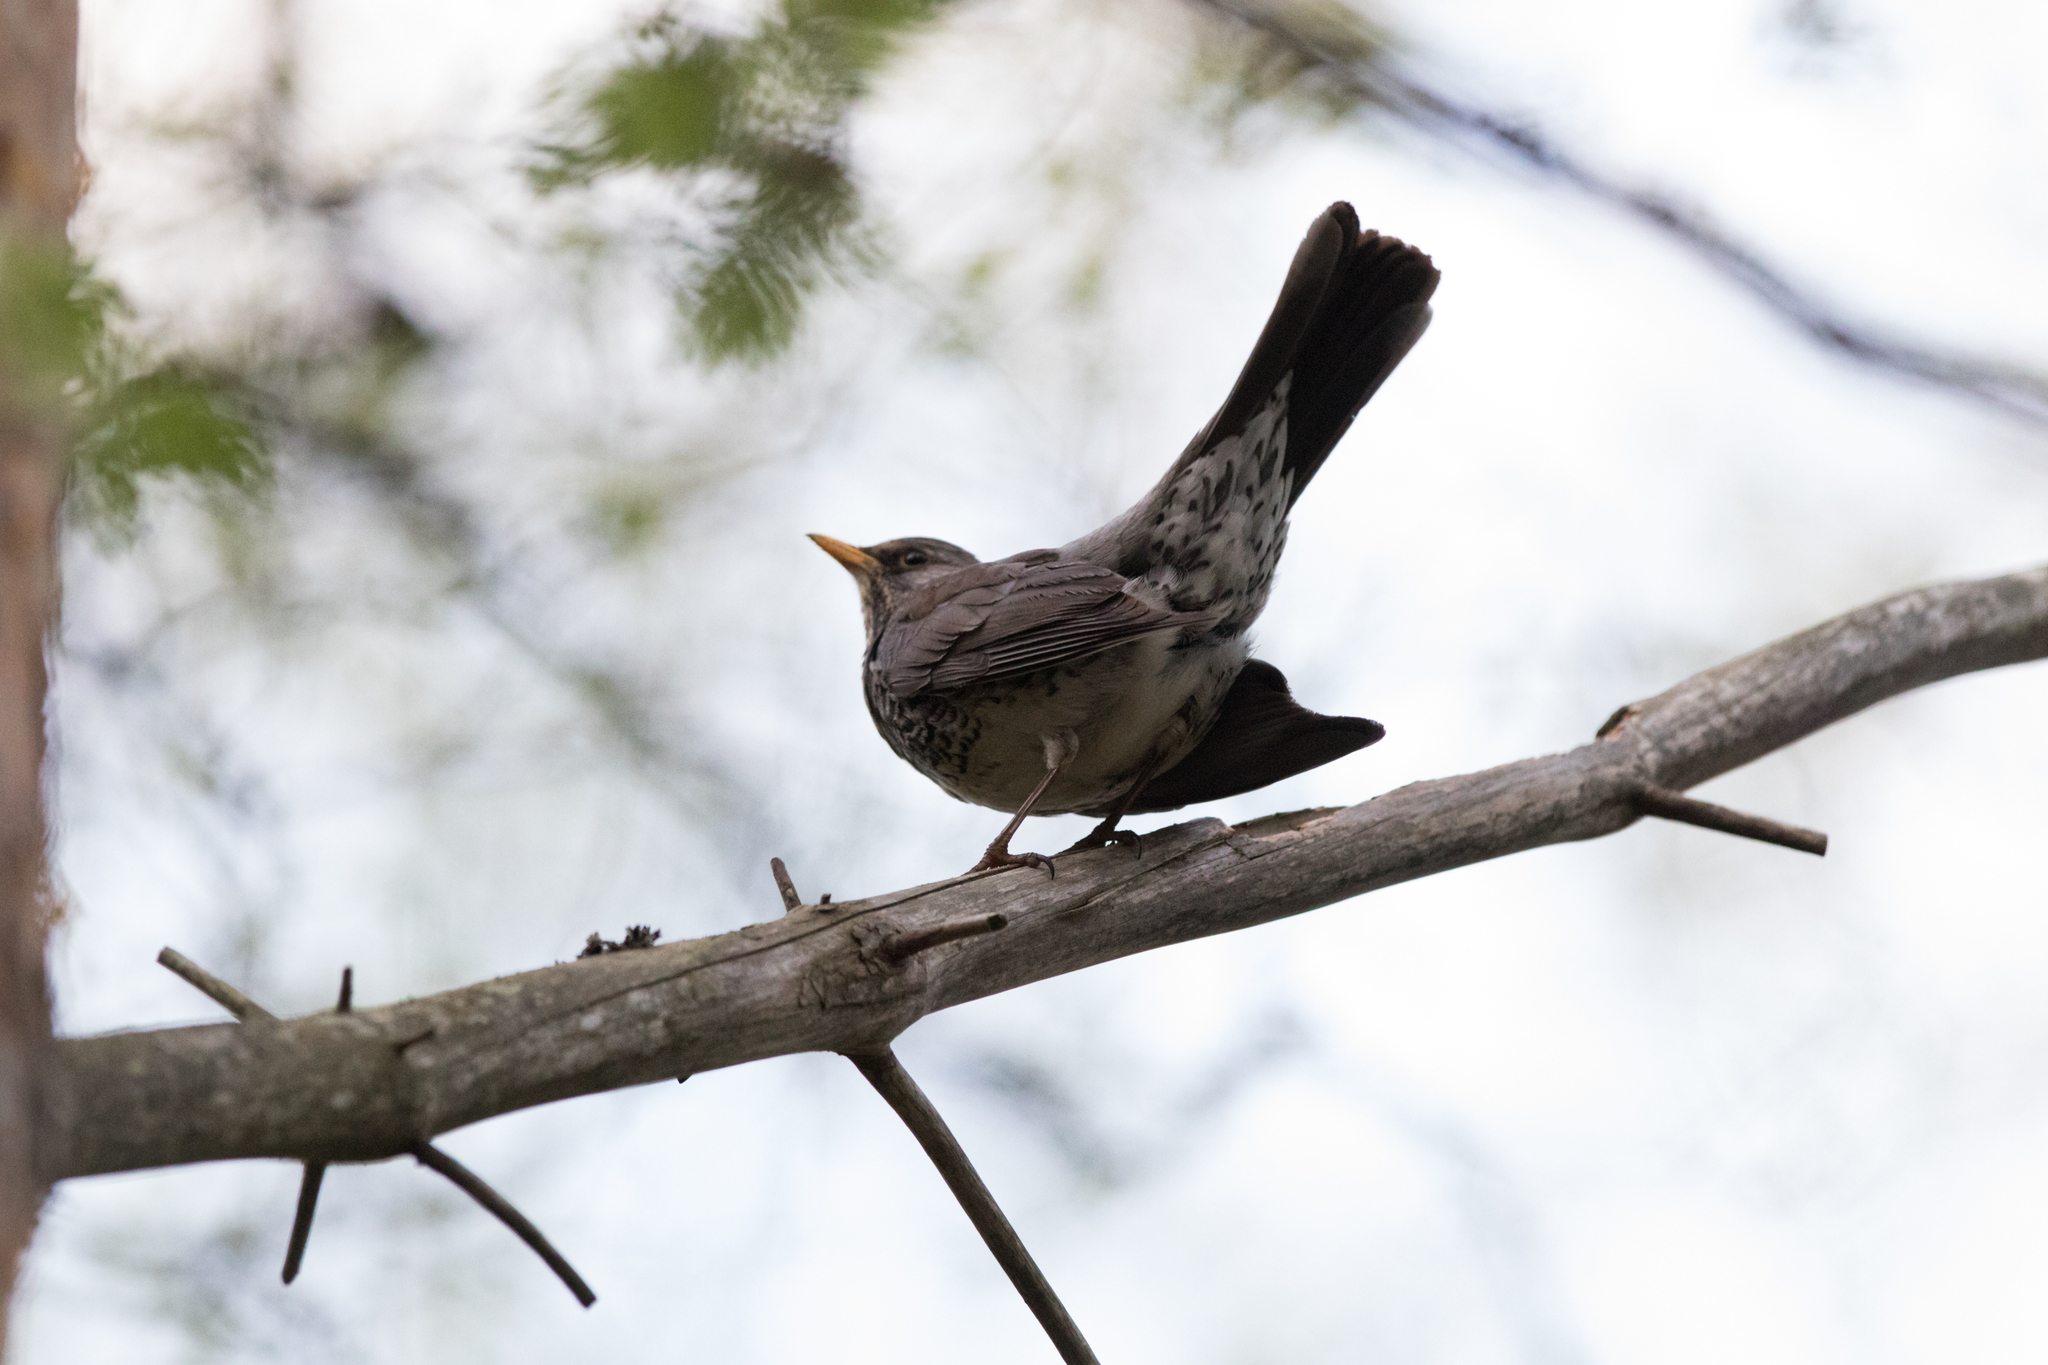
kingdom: Animalia
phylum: Chordata
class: Aves
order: Passeriformes
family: Turdidae
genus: Turdus
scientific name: Turdus pilaris
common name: Fieldfare
